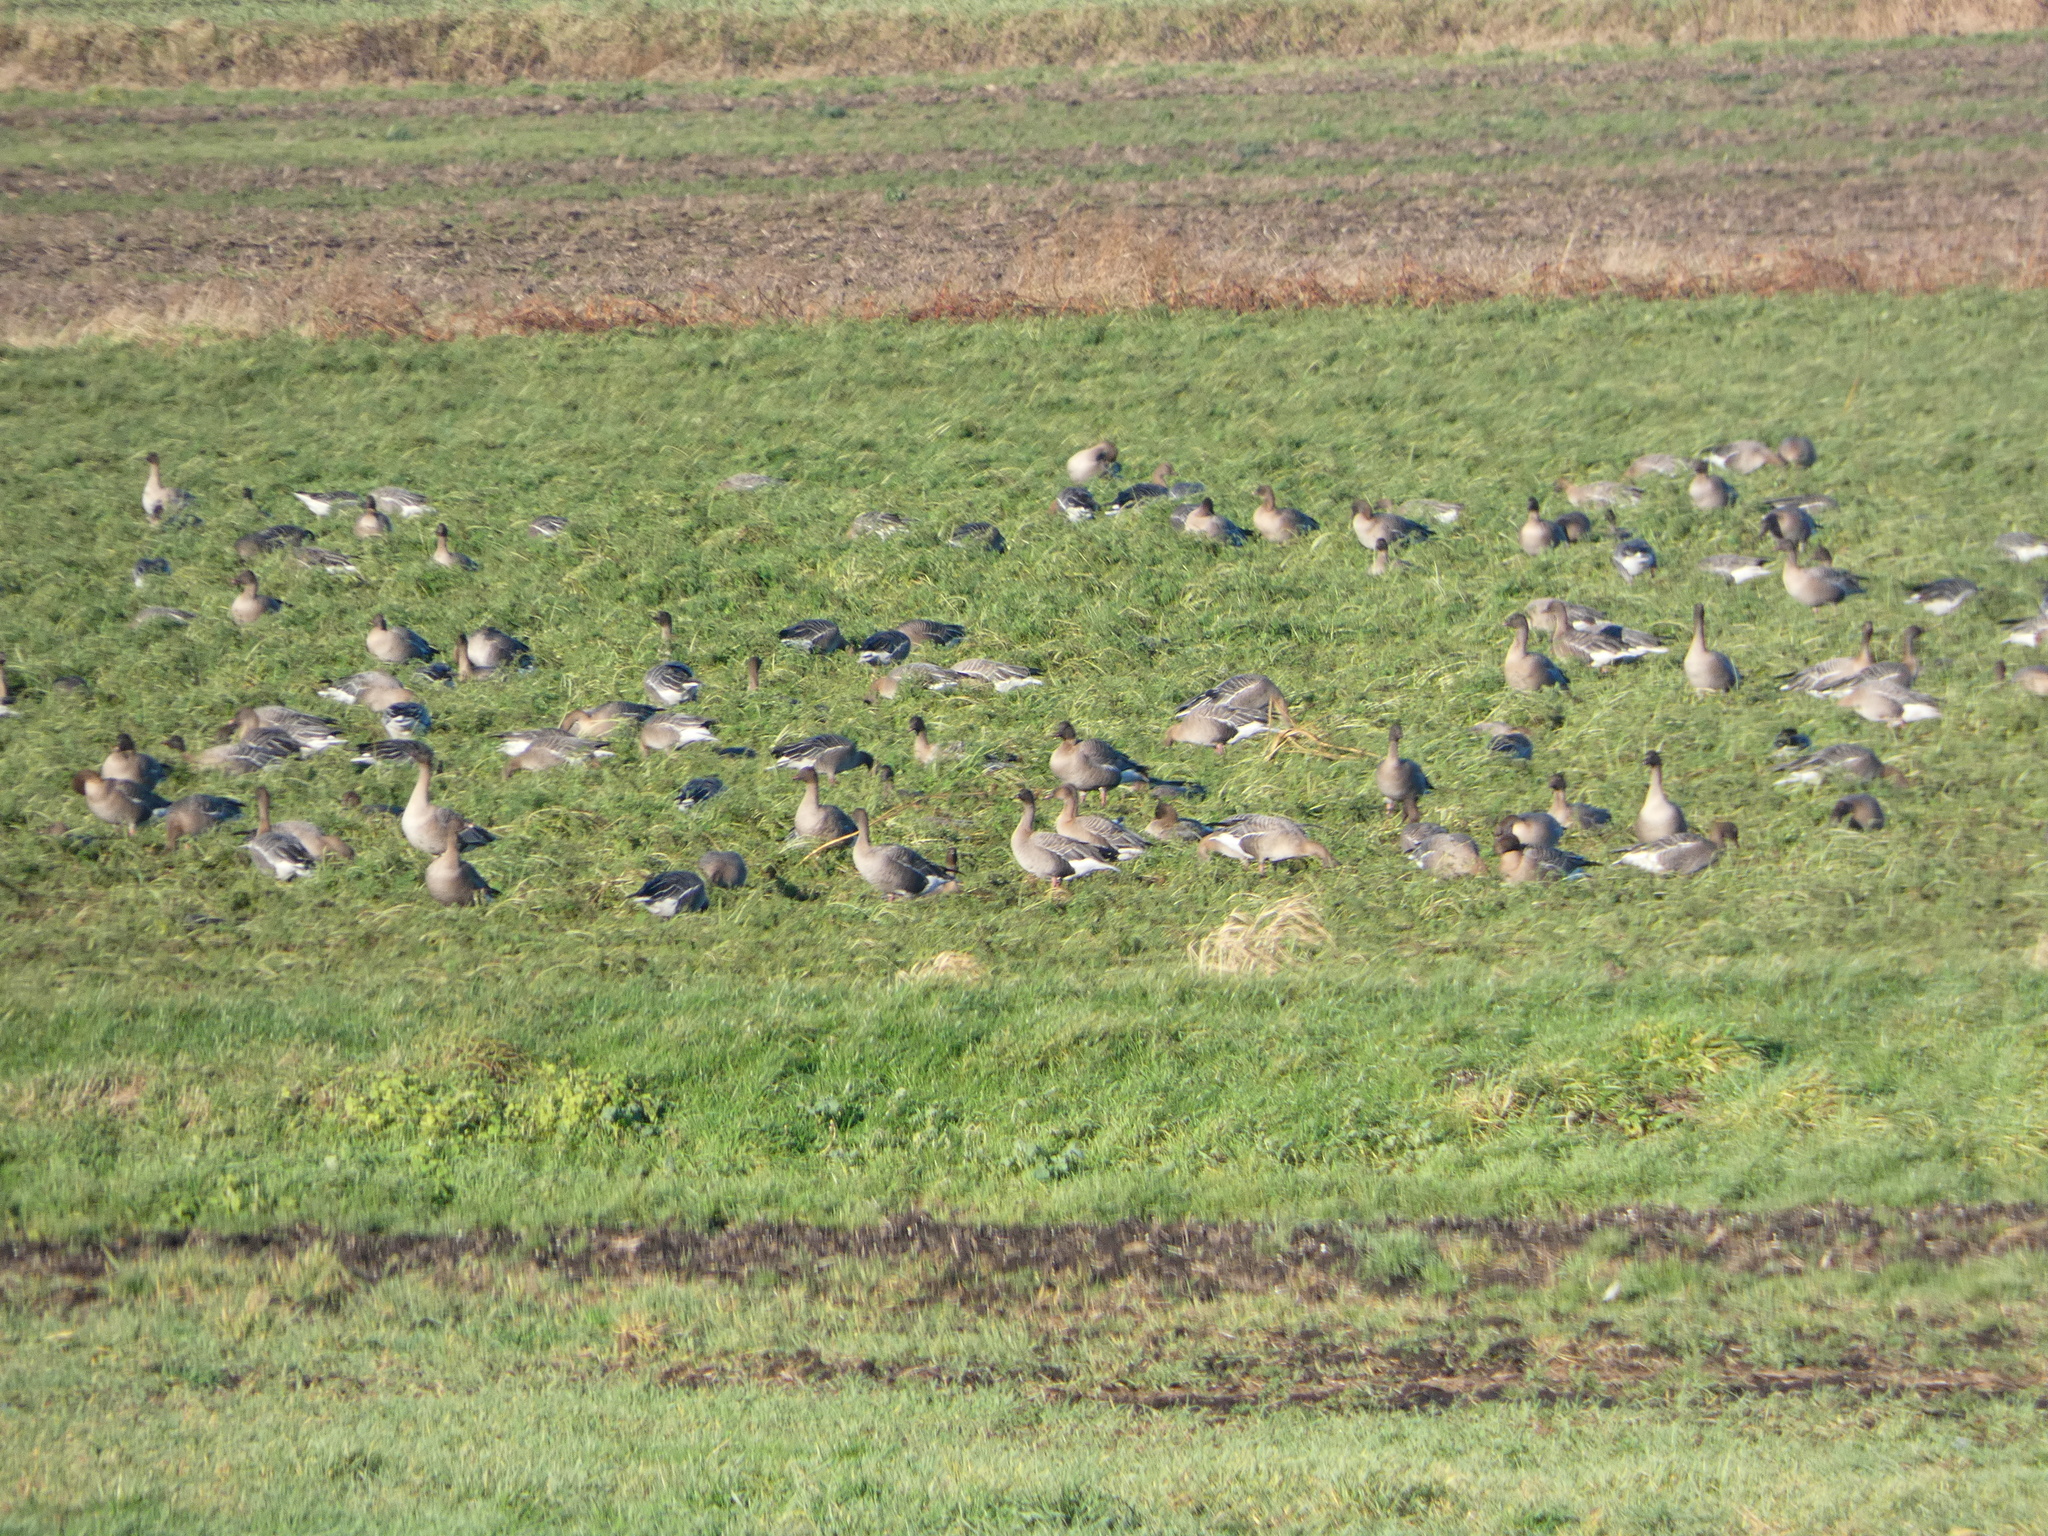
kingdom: Animalia
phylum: Chordata
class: Aves
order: Anseriformes
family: Anatidae
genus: Anser
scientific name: Anser brachyrhynchus
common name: Pink-footed goose
